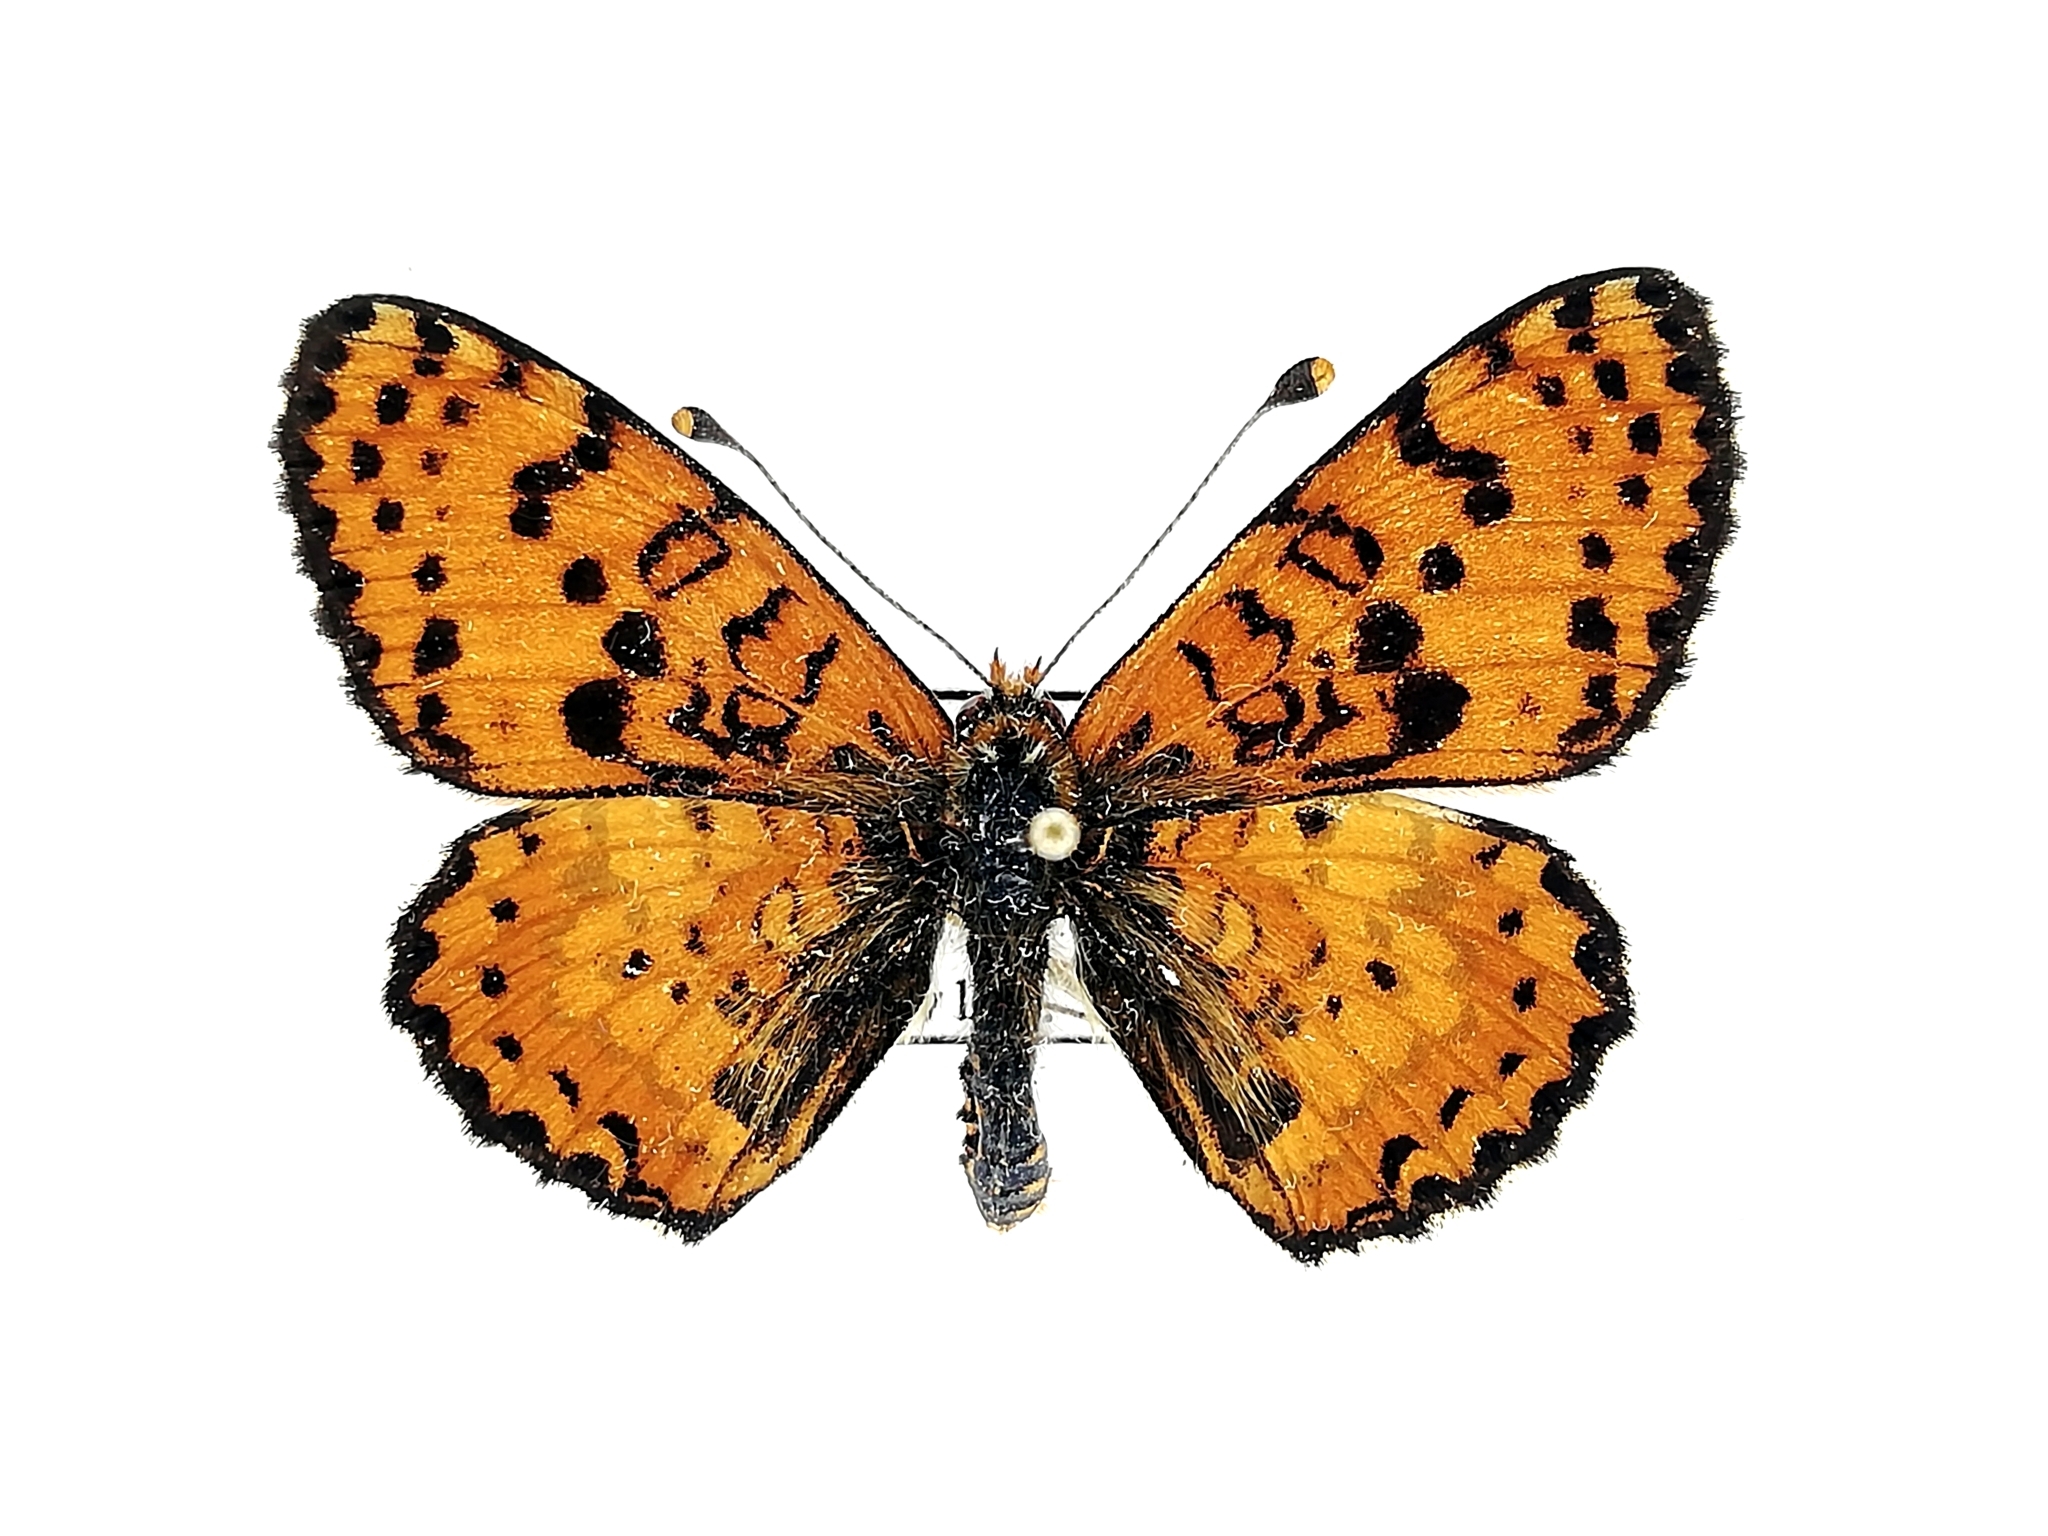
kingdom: Animalia
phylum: Arthropoda
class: Insecta
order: Lepidoptera
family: Nymphalidae
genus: Melitaea
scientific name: Melitaea didyma
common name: Spotted fritillary
